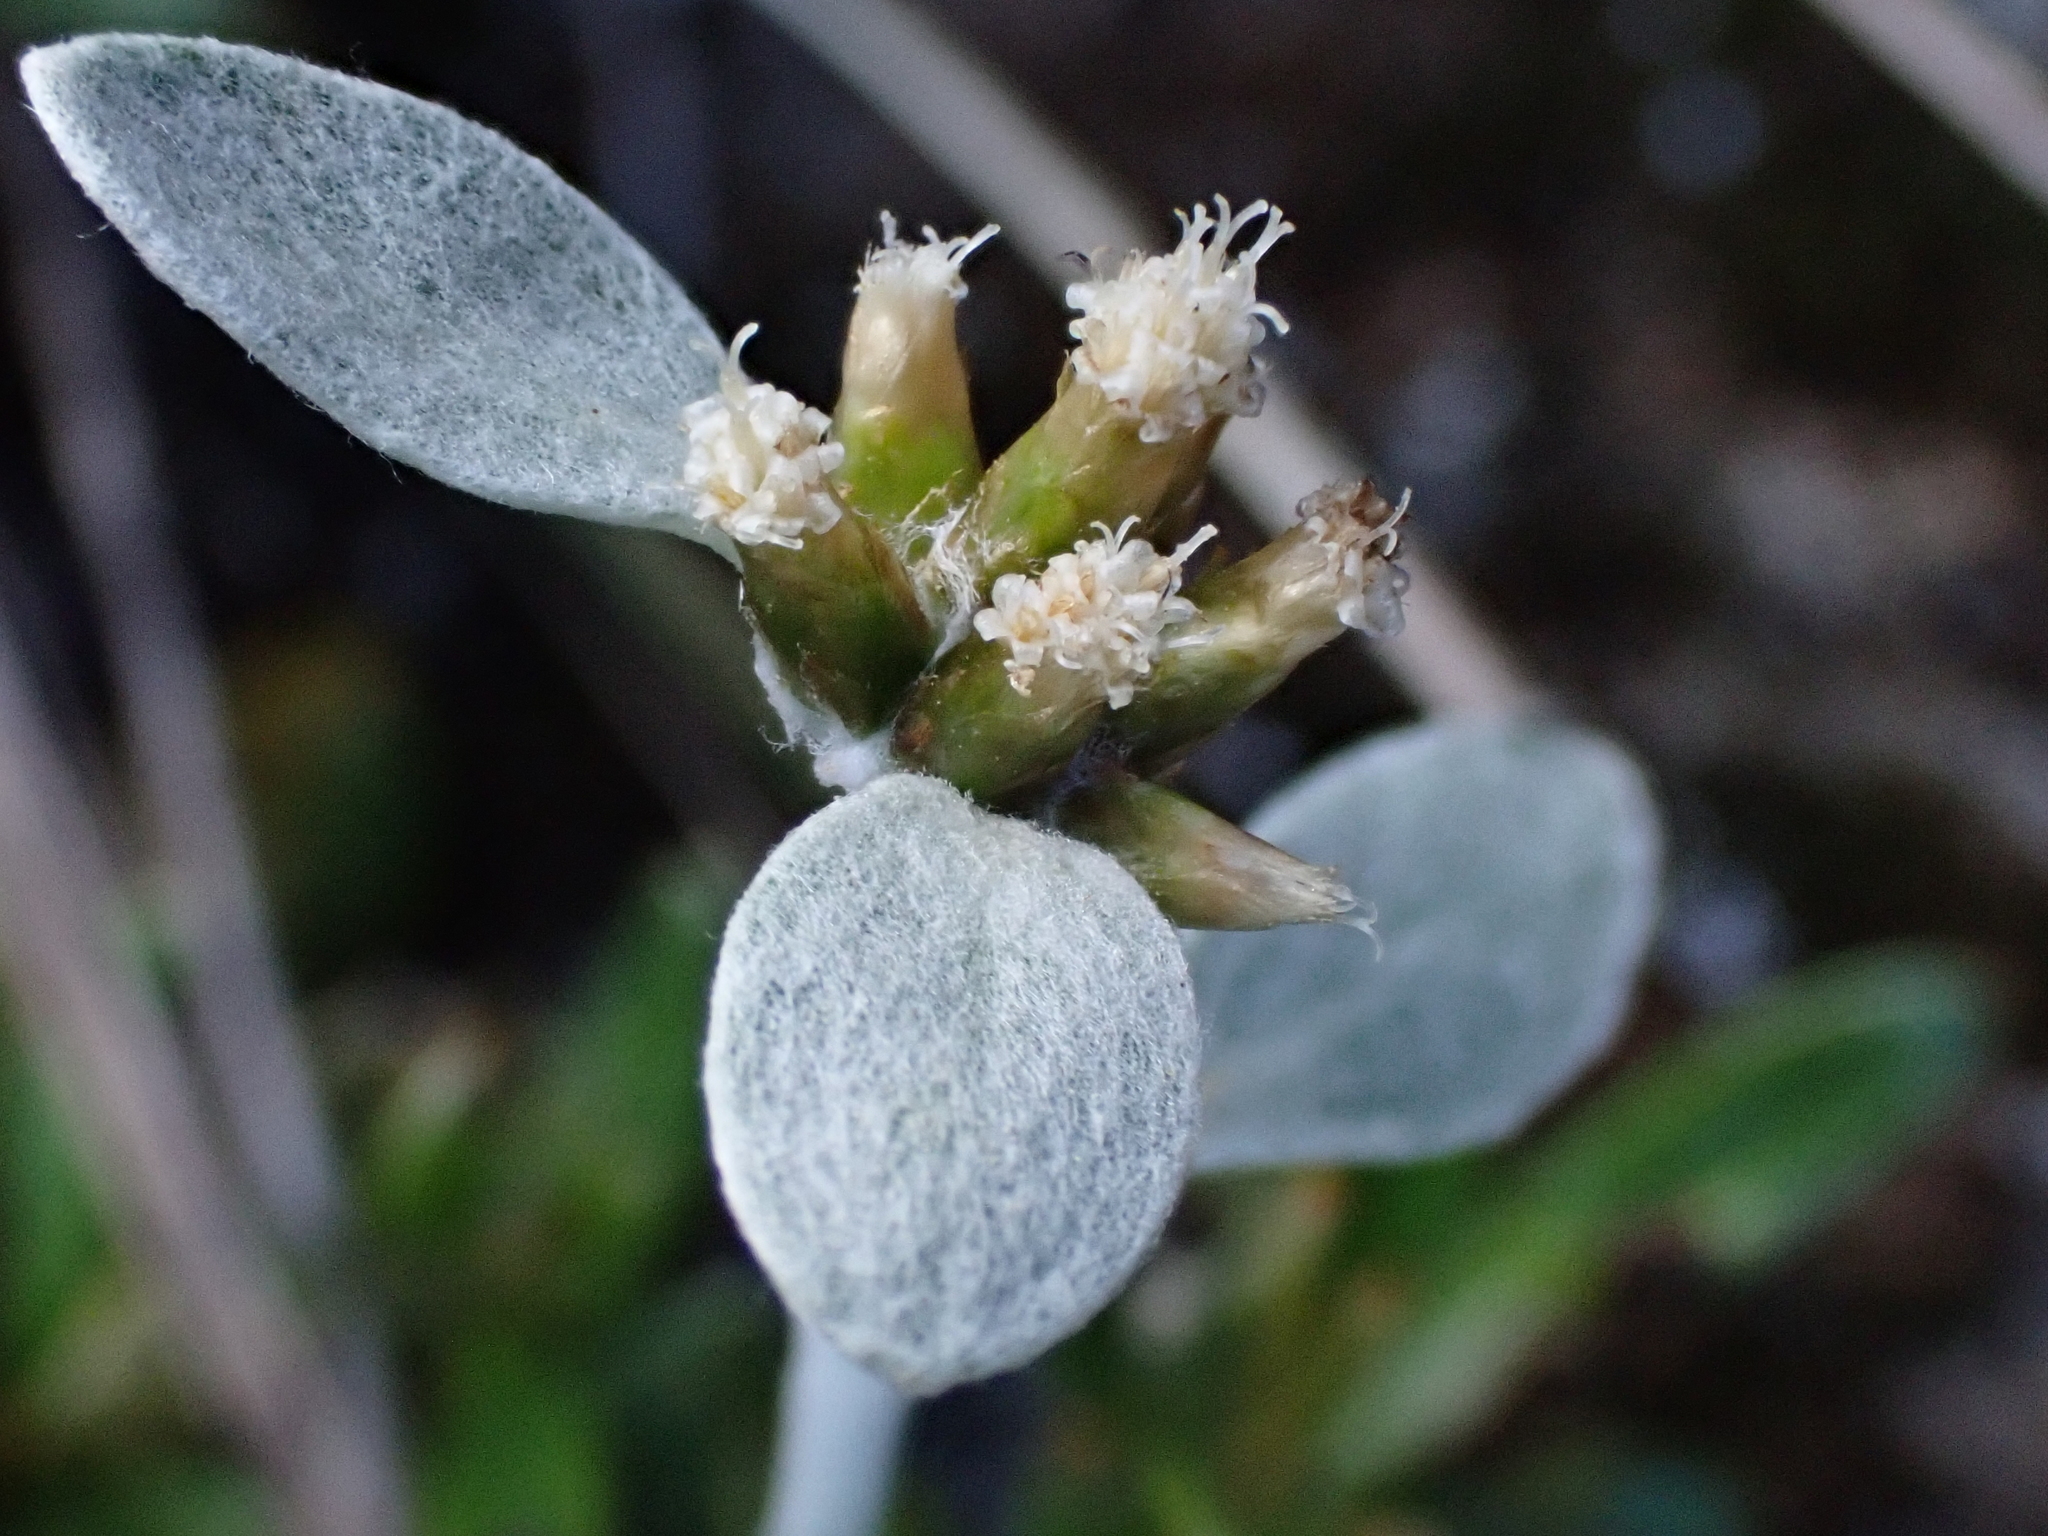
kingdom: Plantae
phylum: Tracheophyta
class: Magnoliopsida
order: Asterales
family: Asteraceae
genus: Euchiton
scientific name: Euchiton umbricola
